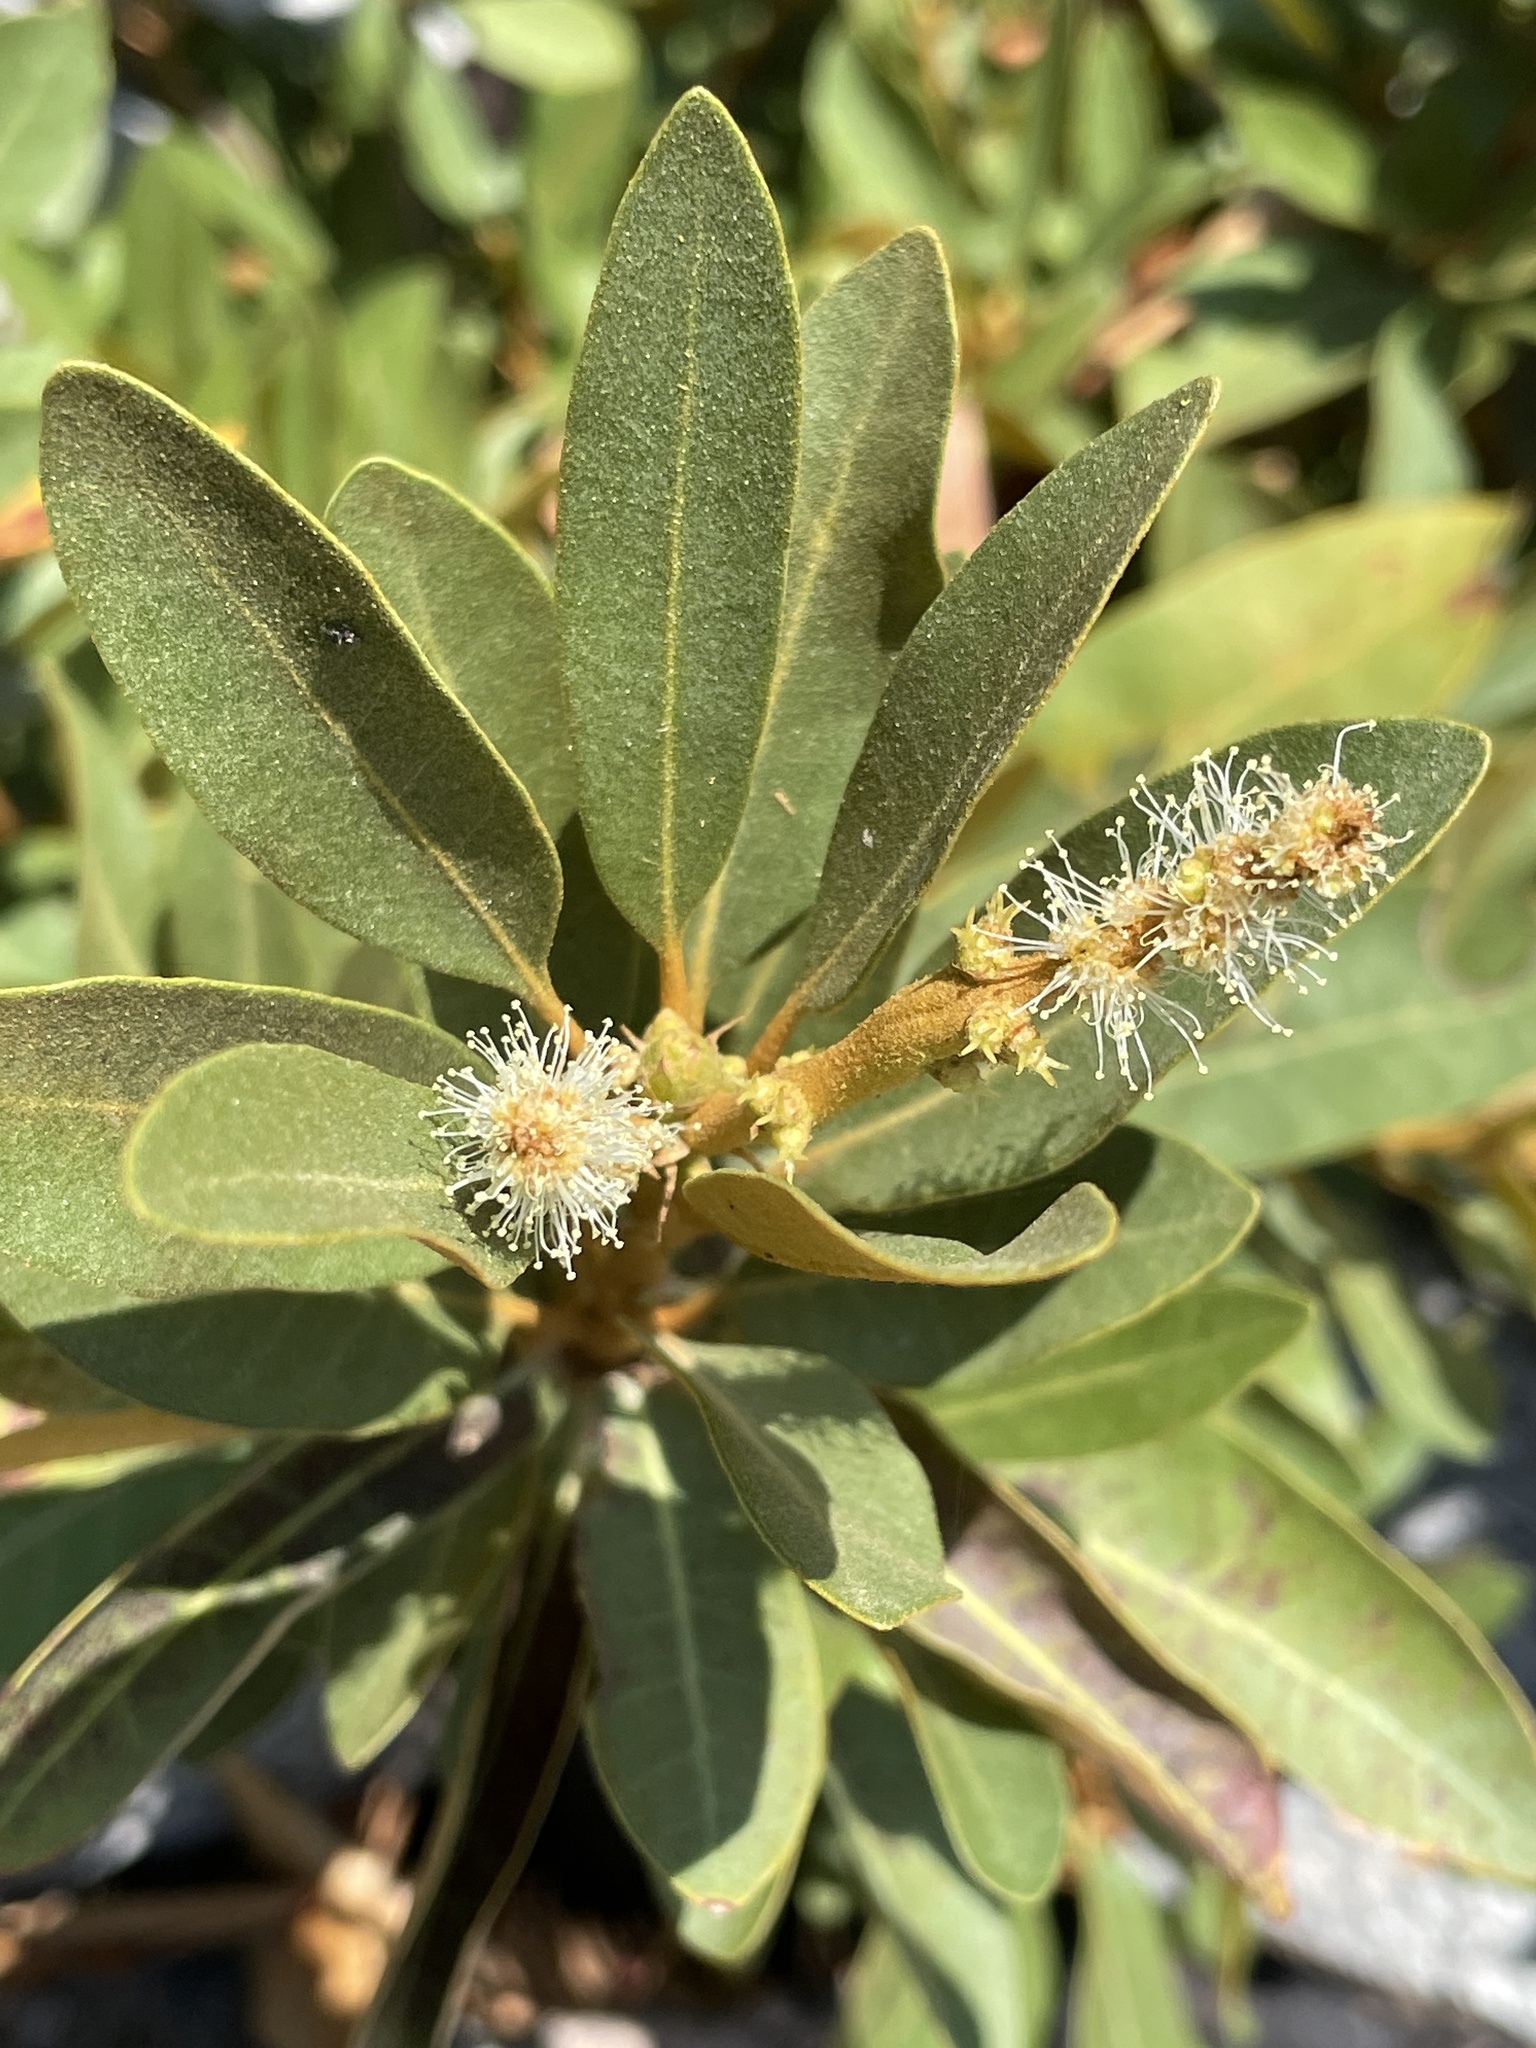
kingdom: Plantae
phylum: Tracheophyta
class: Magnoliopsida
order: Fagales
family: Fagaceae
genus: Chrysolepis
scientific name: Chrysolepis sempervirens
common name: Bush chinquapin
